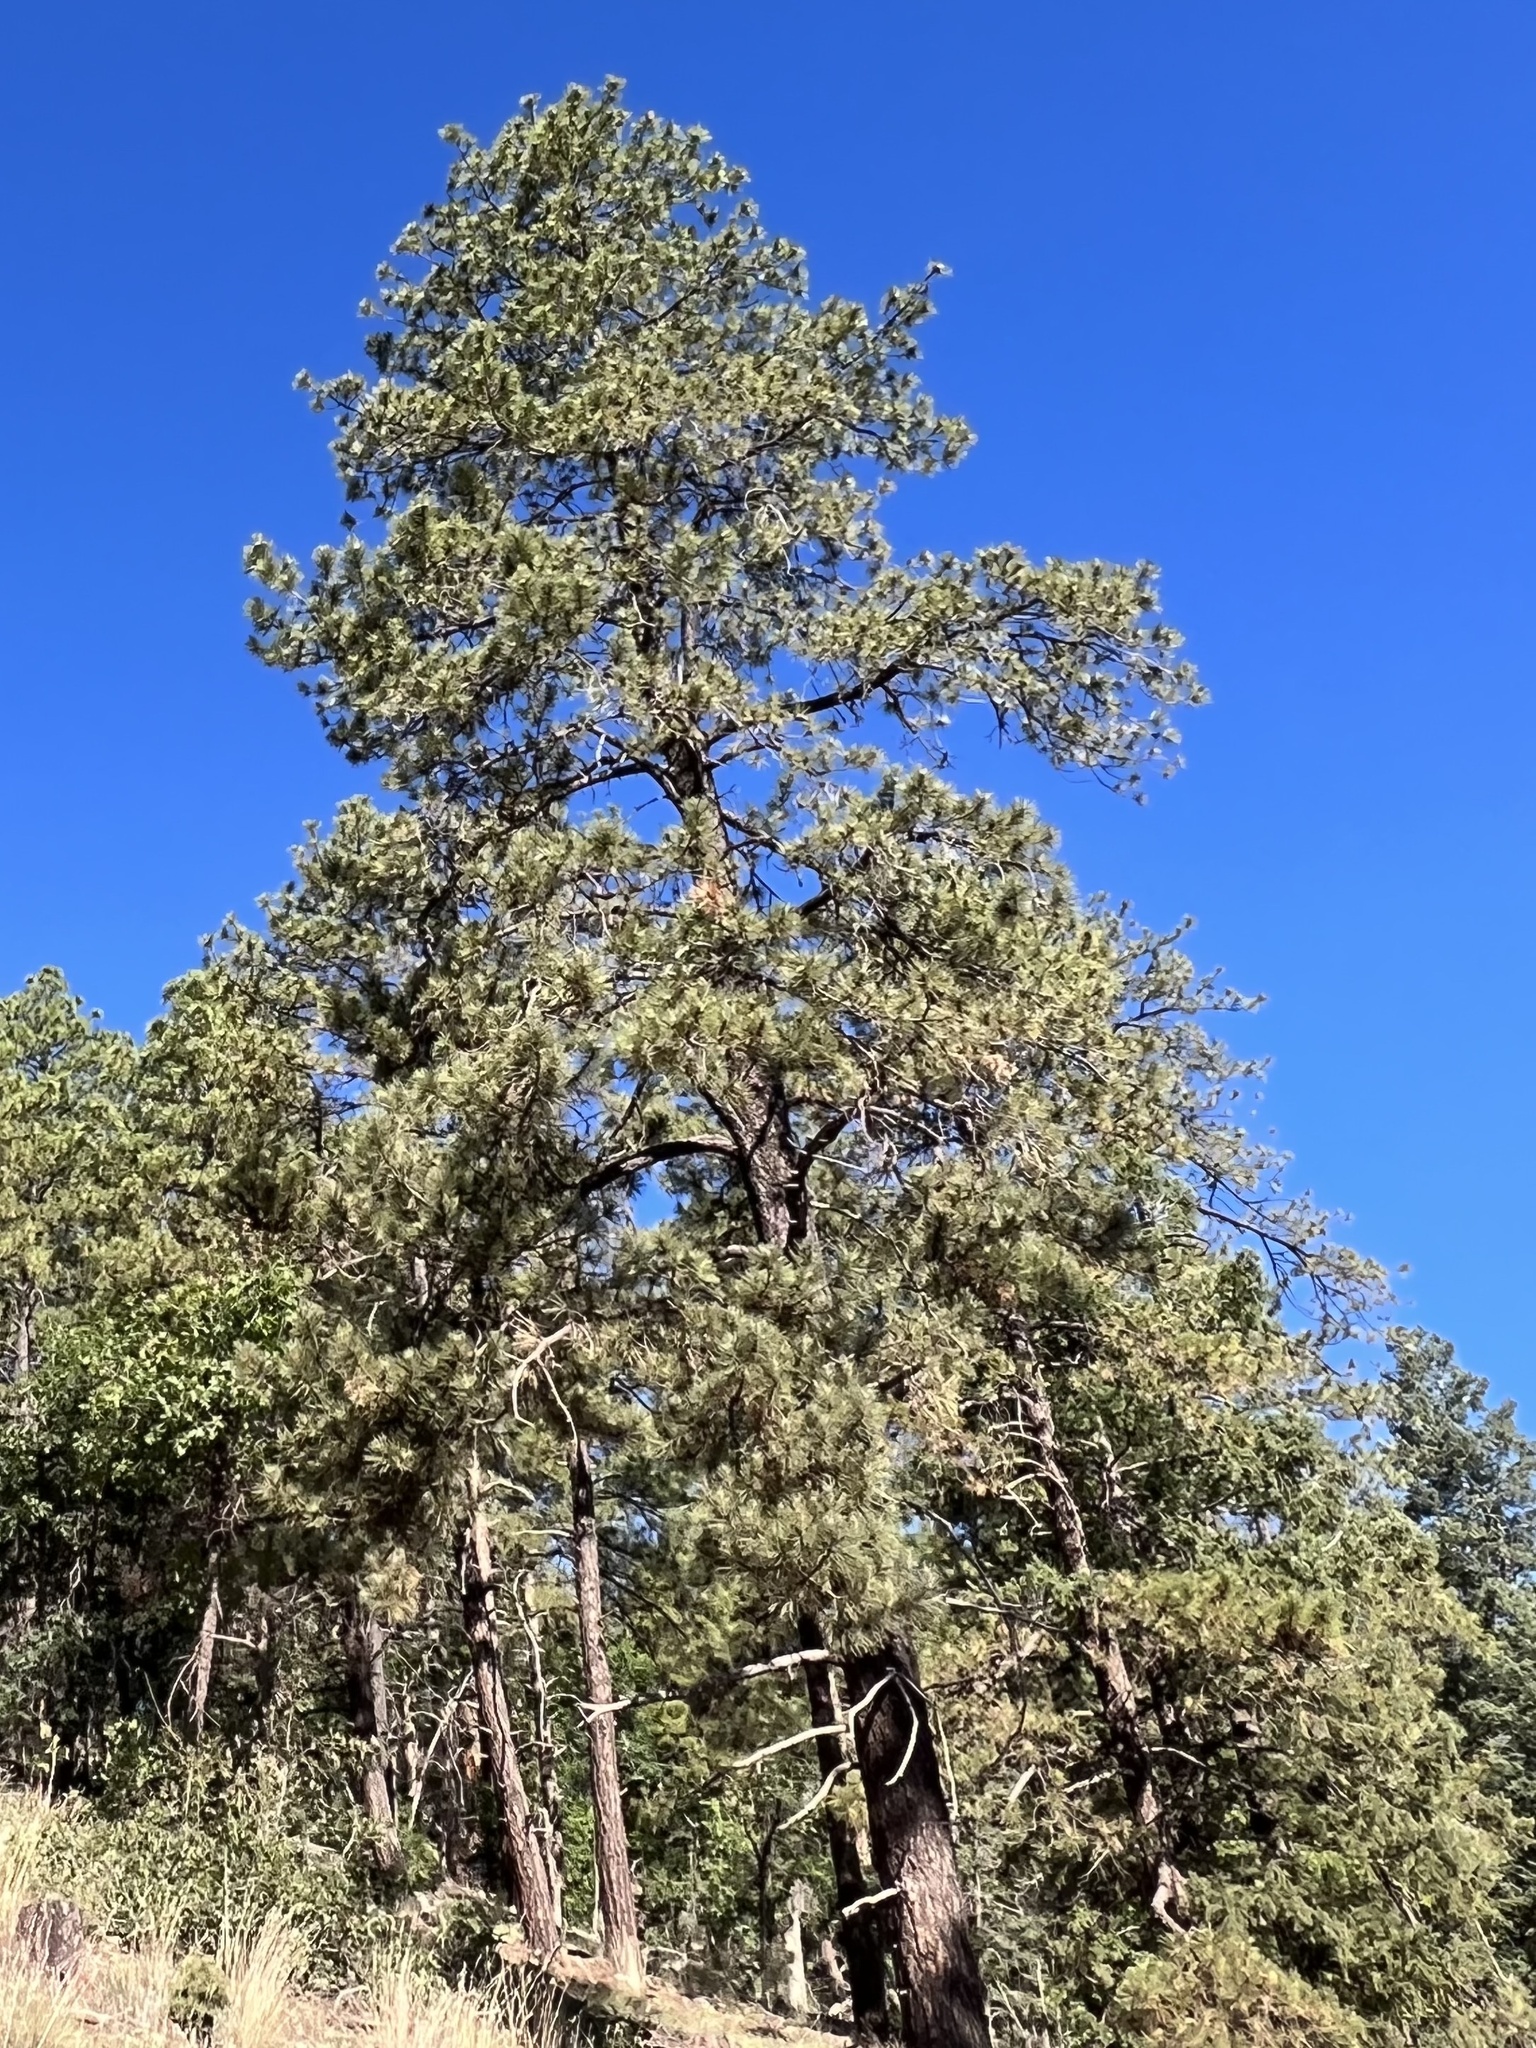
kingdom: Plantae
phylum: Tracheophyta
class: Pinopsida
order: Pinales
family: Pinaceae
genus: Pinus
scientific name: Pinus ponderosa
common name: Western yellow-pine
